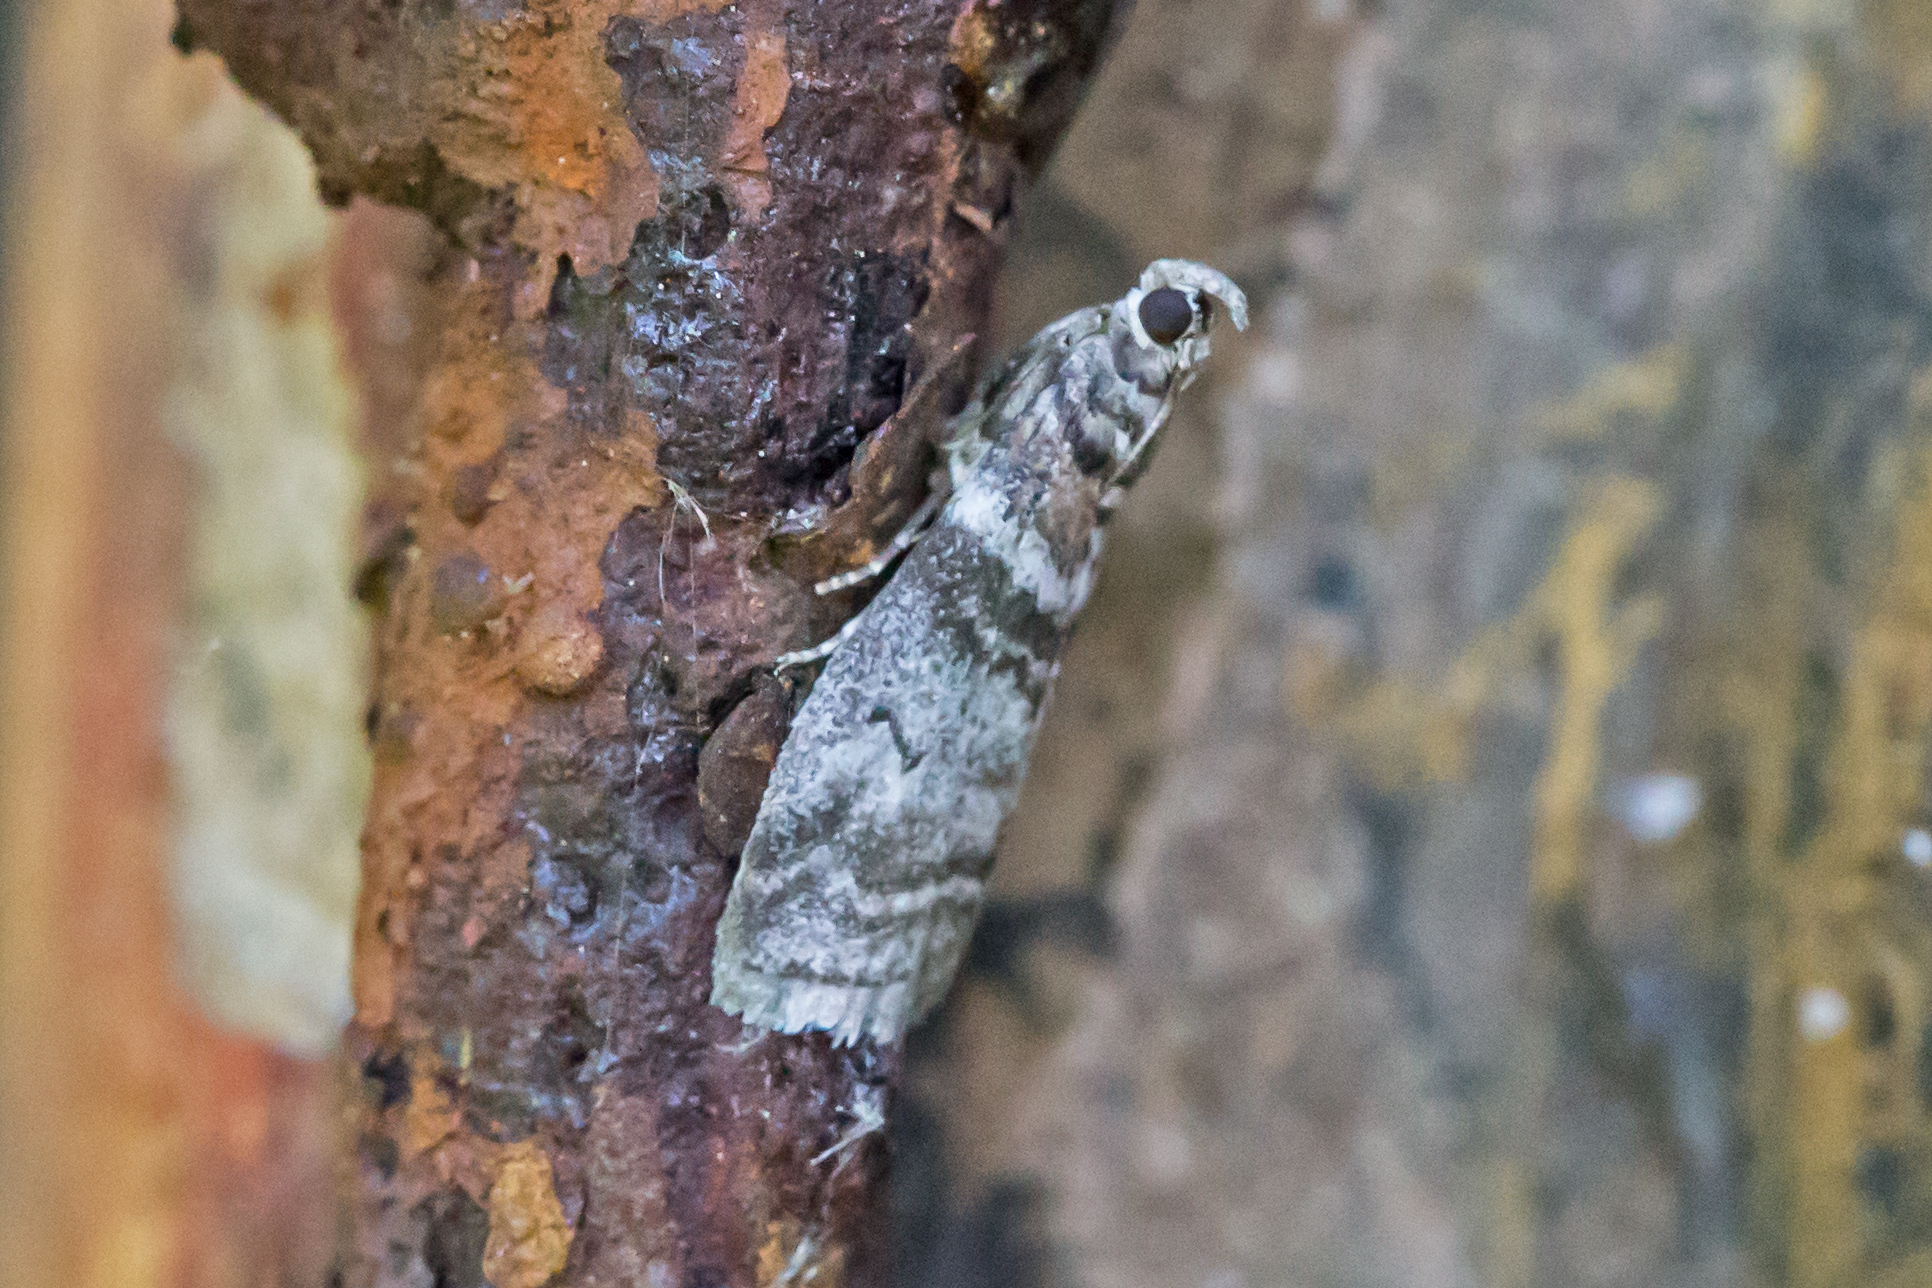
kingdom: Animalia
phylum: Arthropoda
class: Insecta
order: Lepidoptera
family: Pyralidae
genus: Sciota
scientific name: Sciota uvinella
